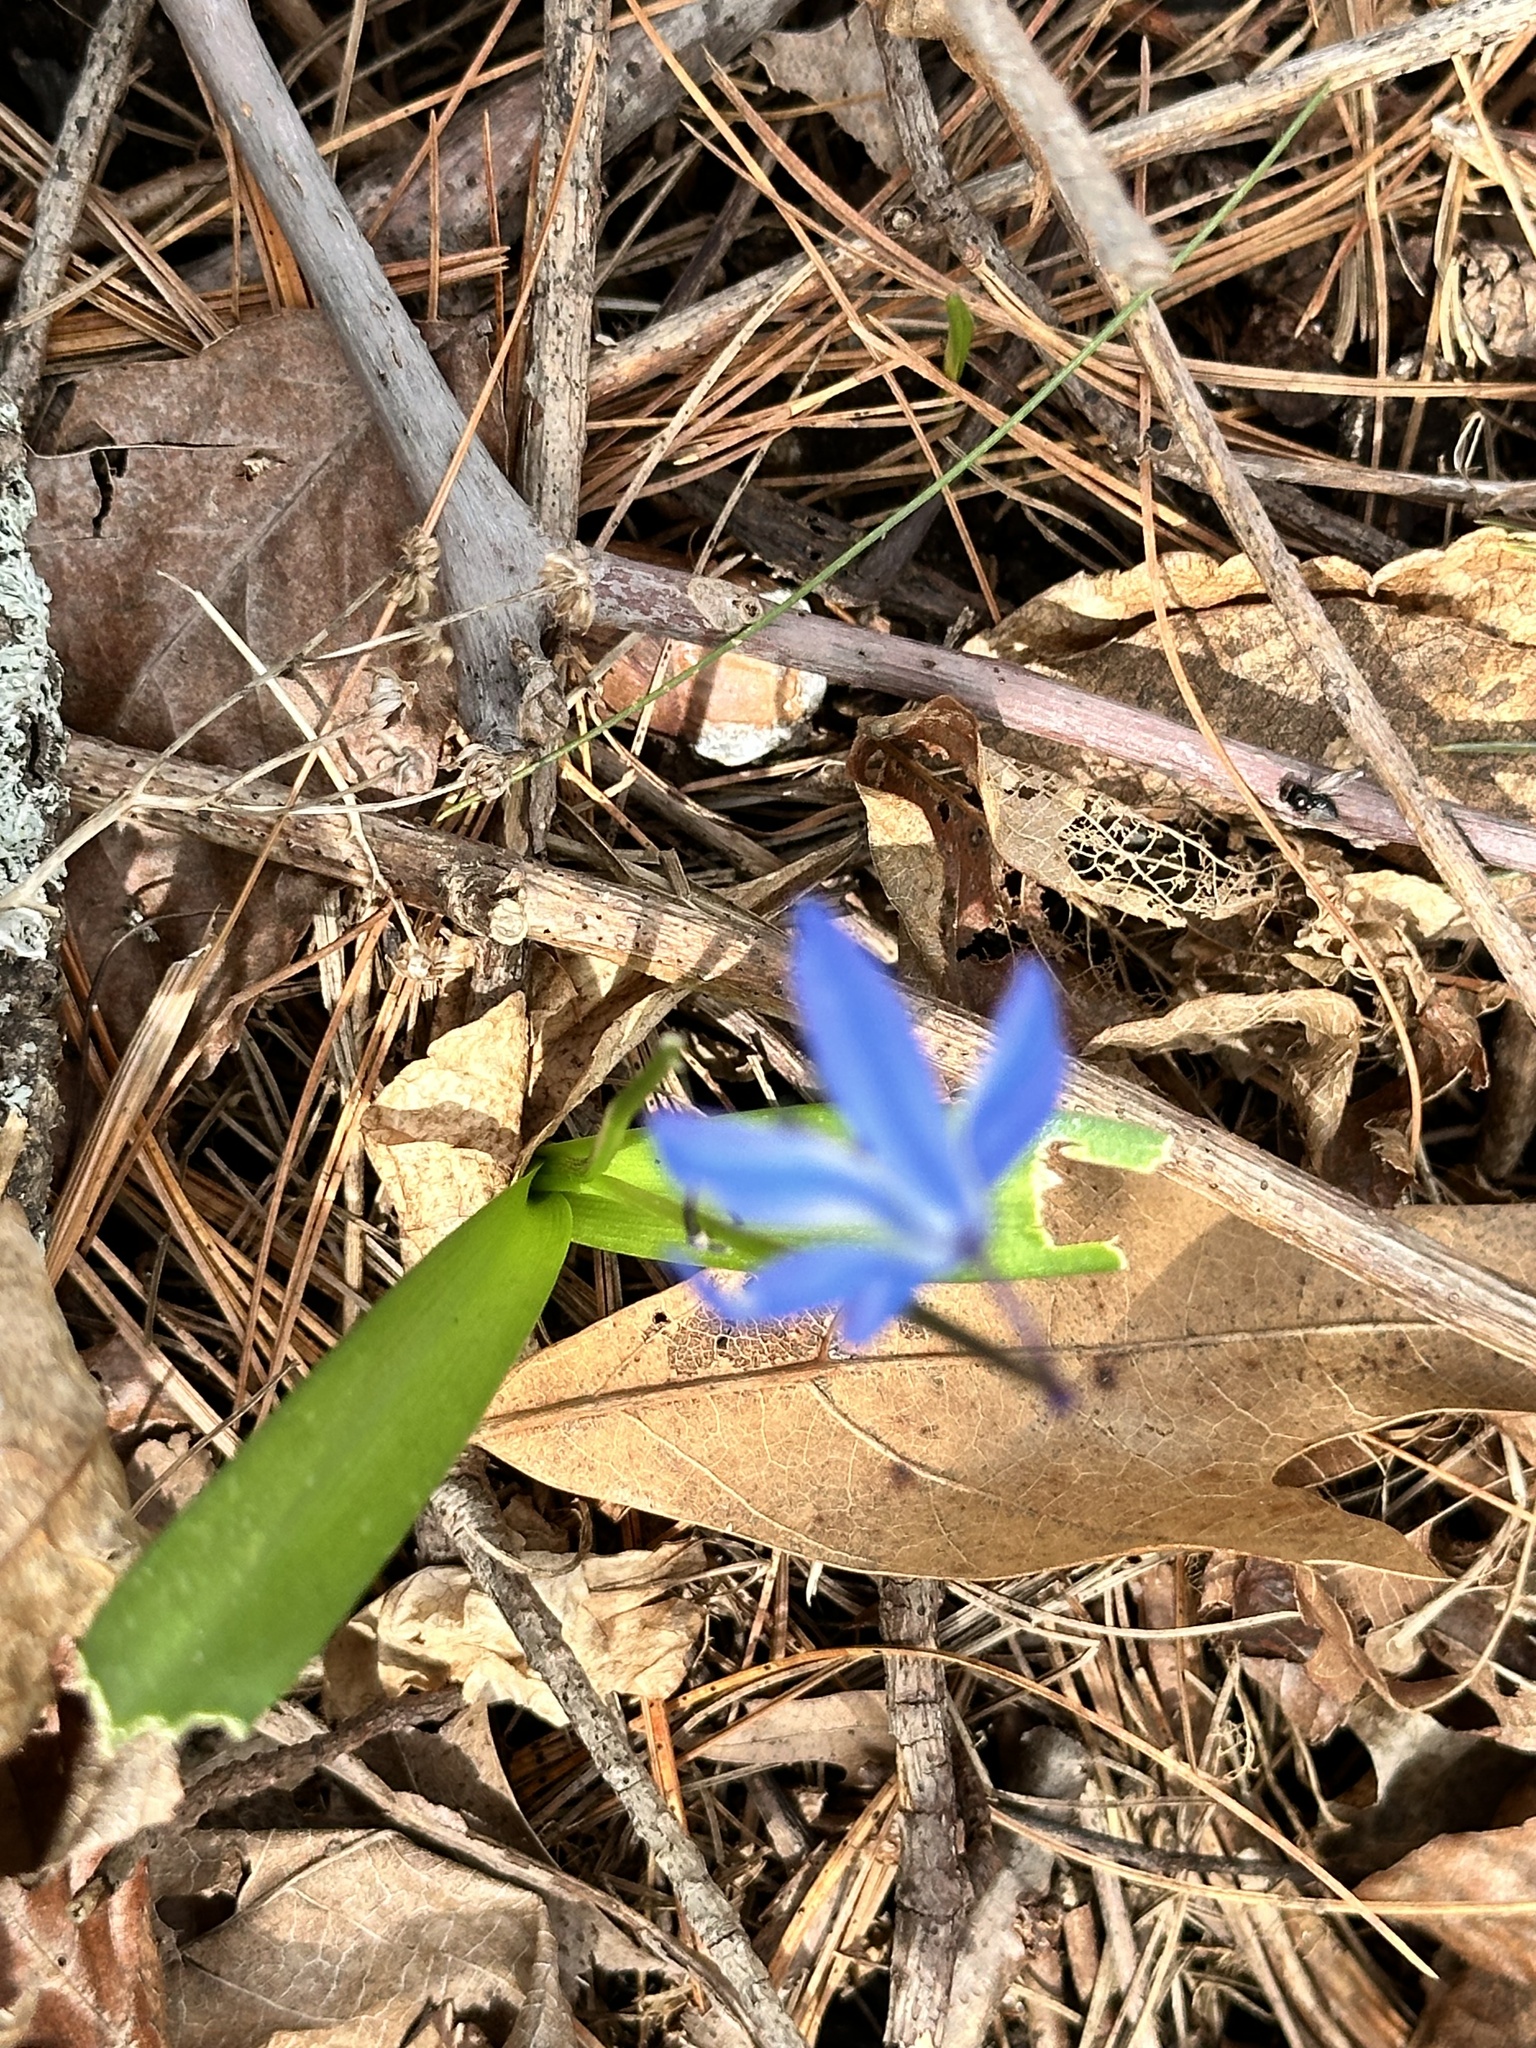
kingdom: Plantae
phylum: Tracheophyta
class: Liliopsida
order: Asparagales
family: Asparagaceae
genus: Scilla
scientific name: Scilla siberica
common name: Siberian squill
